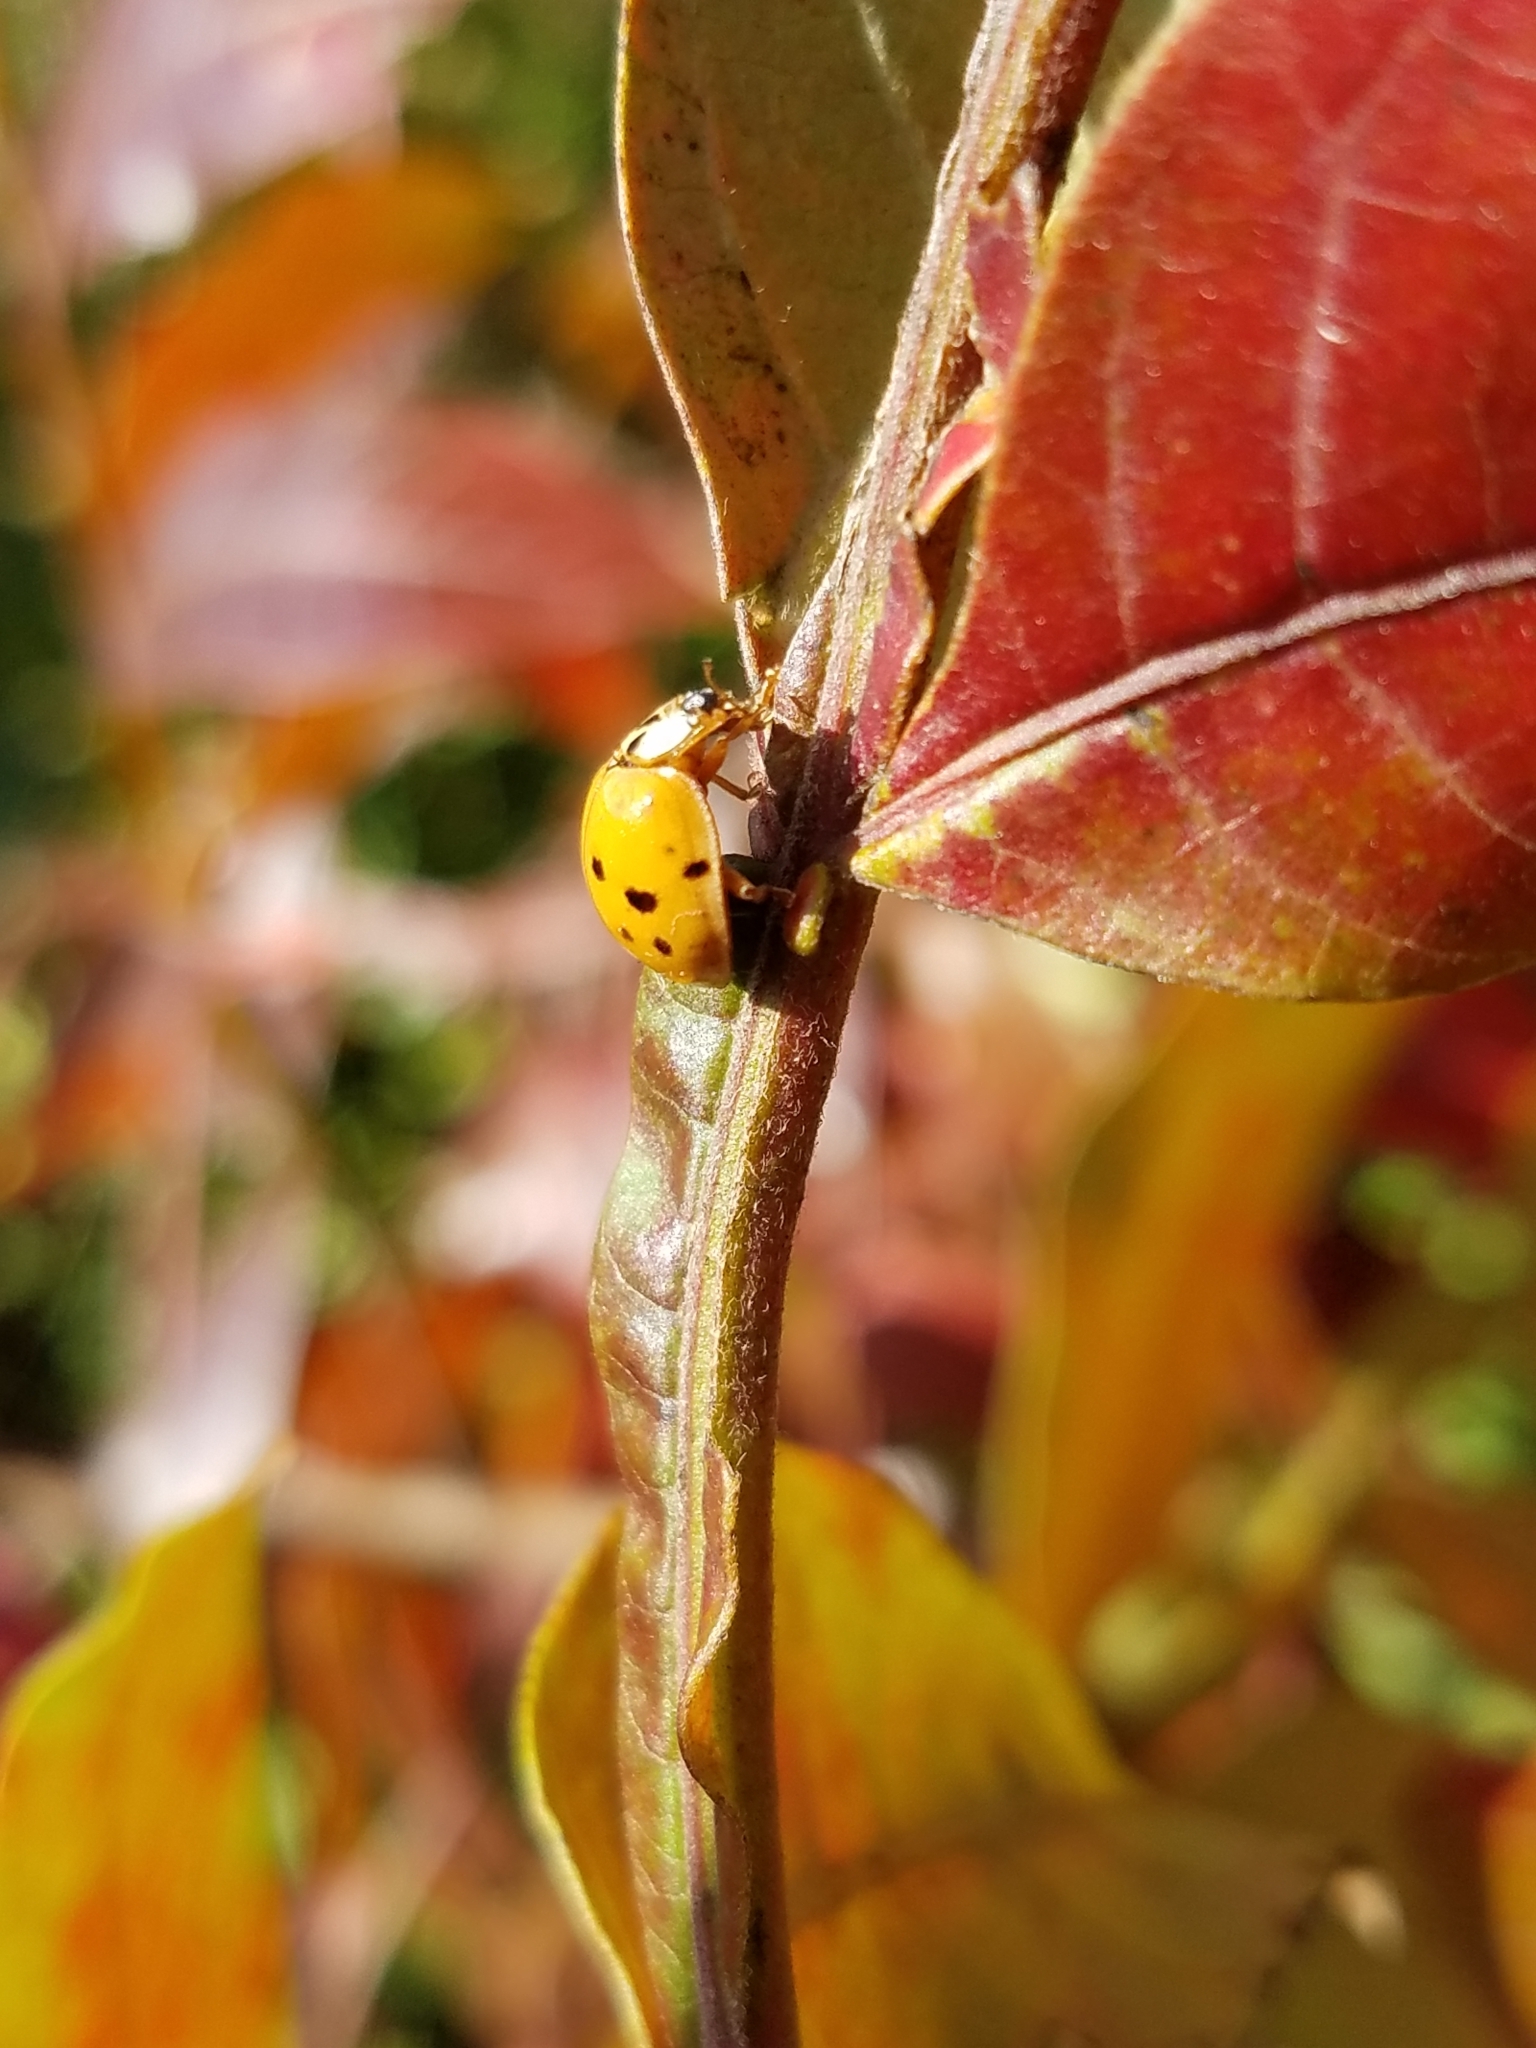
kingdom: Animalia
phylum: Arthropoda
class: Insecta
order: Coleoptera
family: Coccinellidae
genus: Harmonia
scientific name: Harmonia axyridis
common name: Harlequin ladybird
